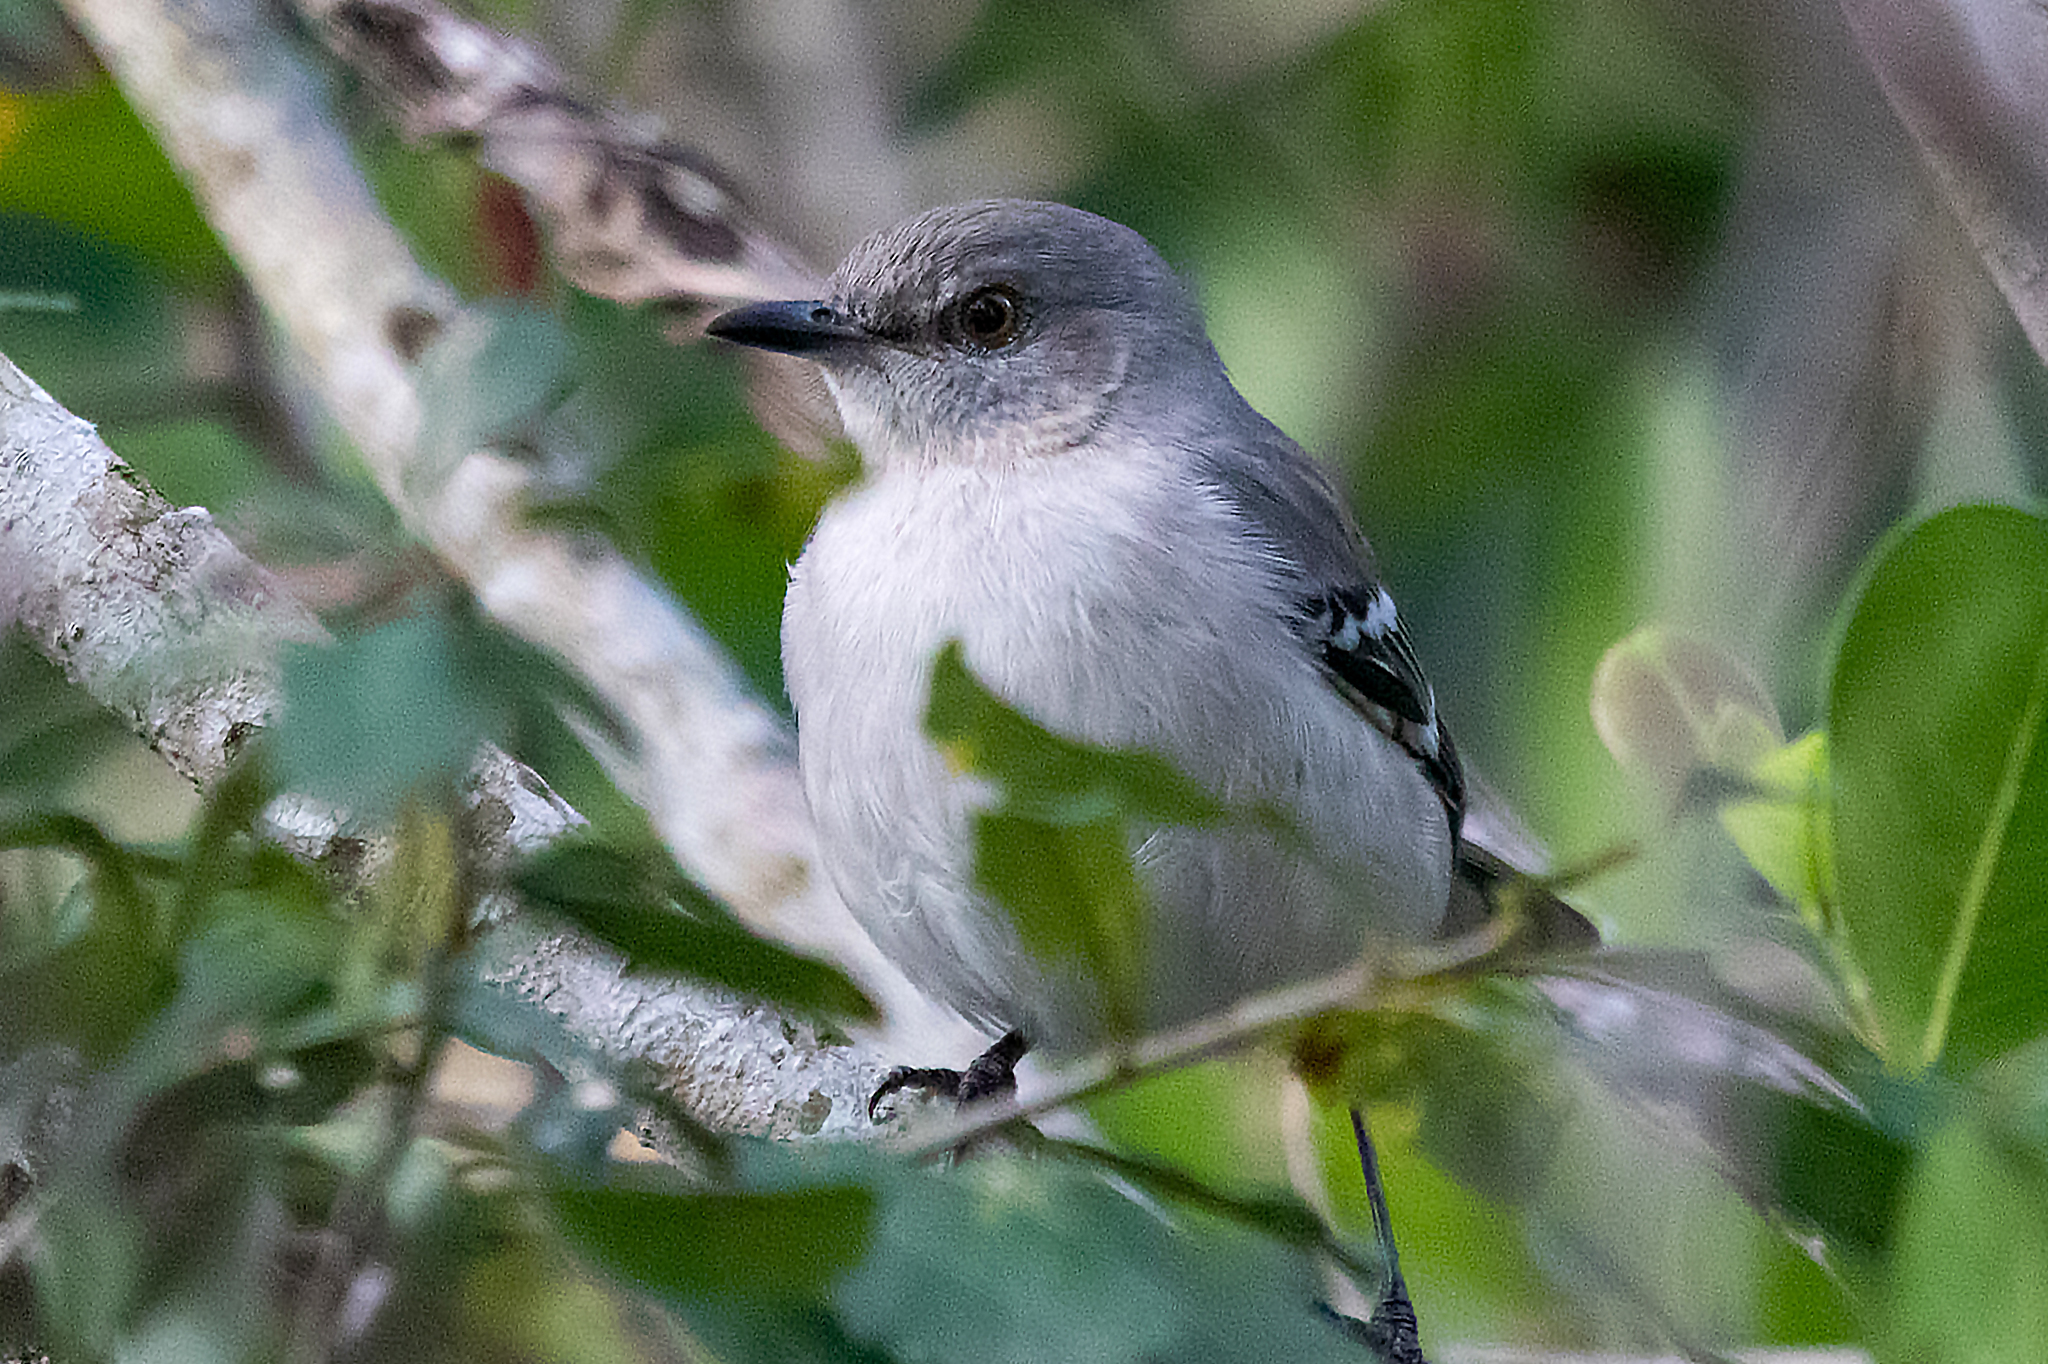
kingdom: Animalia
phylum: Chordata
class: Aves
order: Passeriformes
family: Mimidae
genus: Mimus
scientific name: Mimus polyglottos
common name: Northern mockingbird
